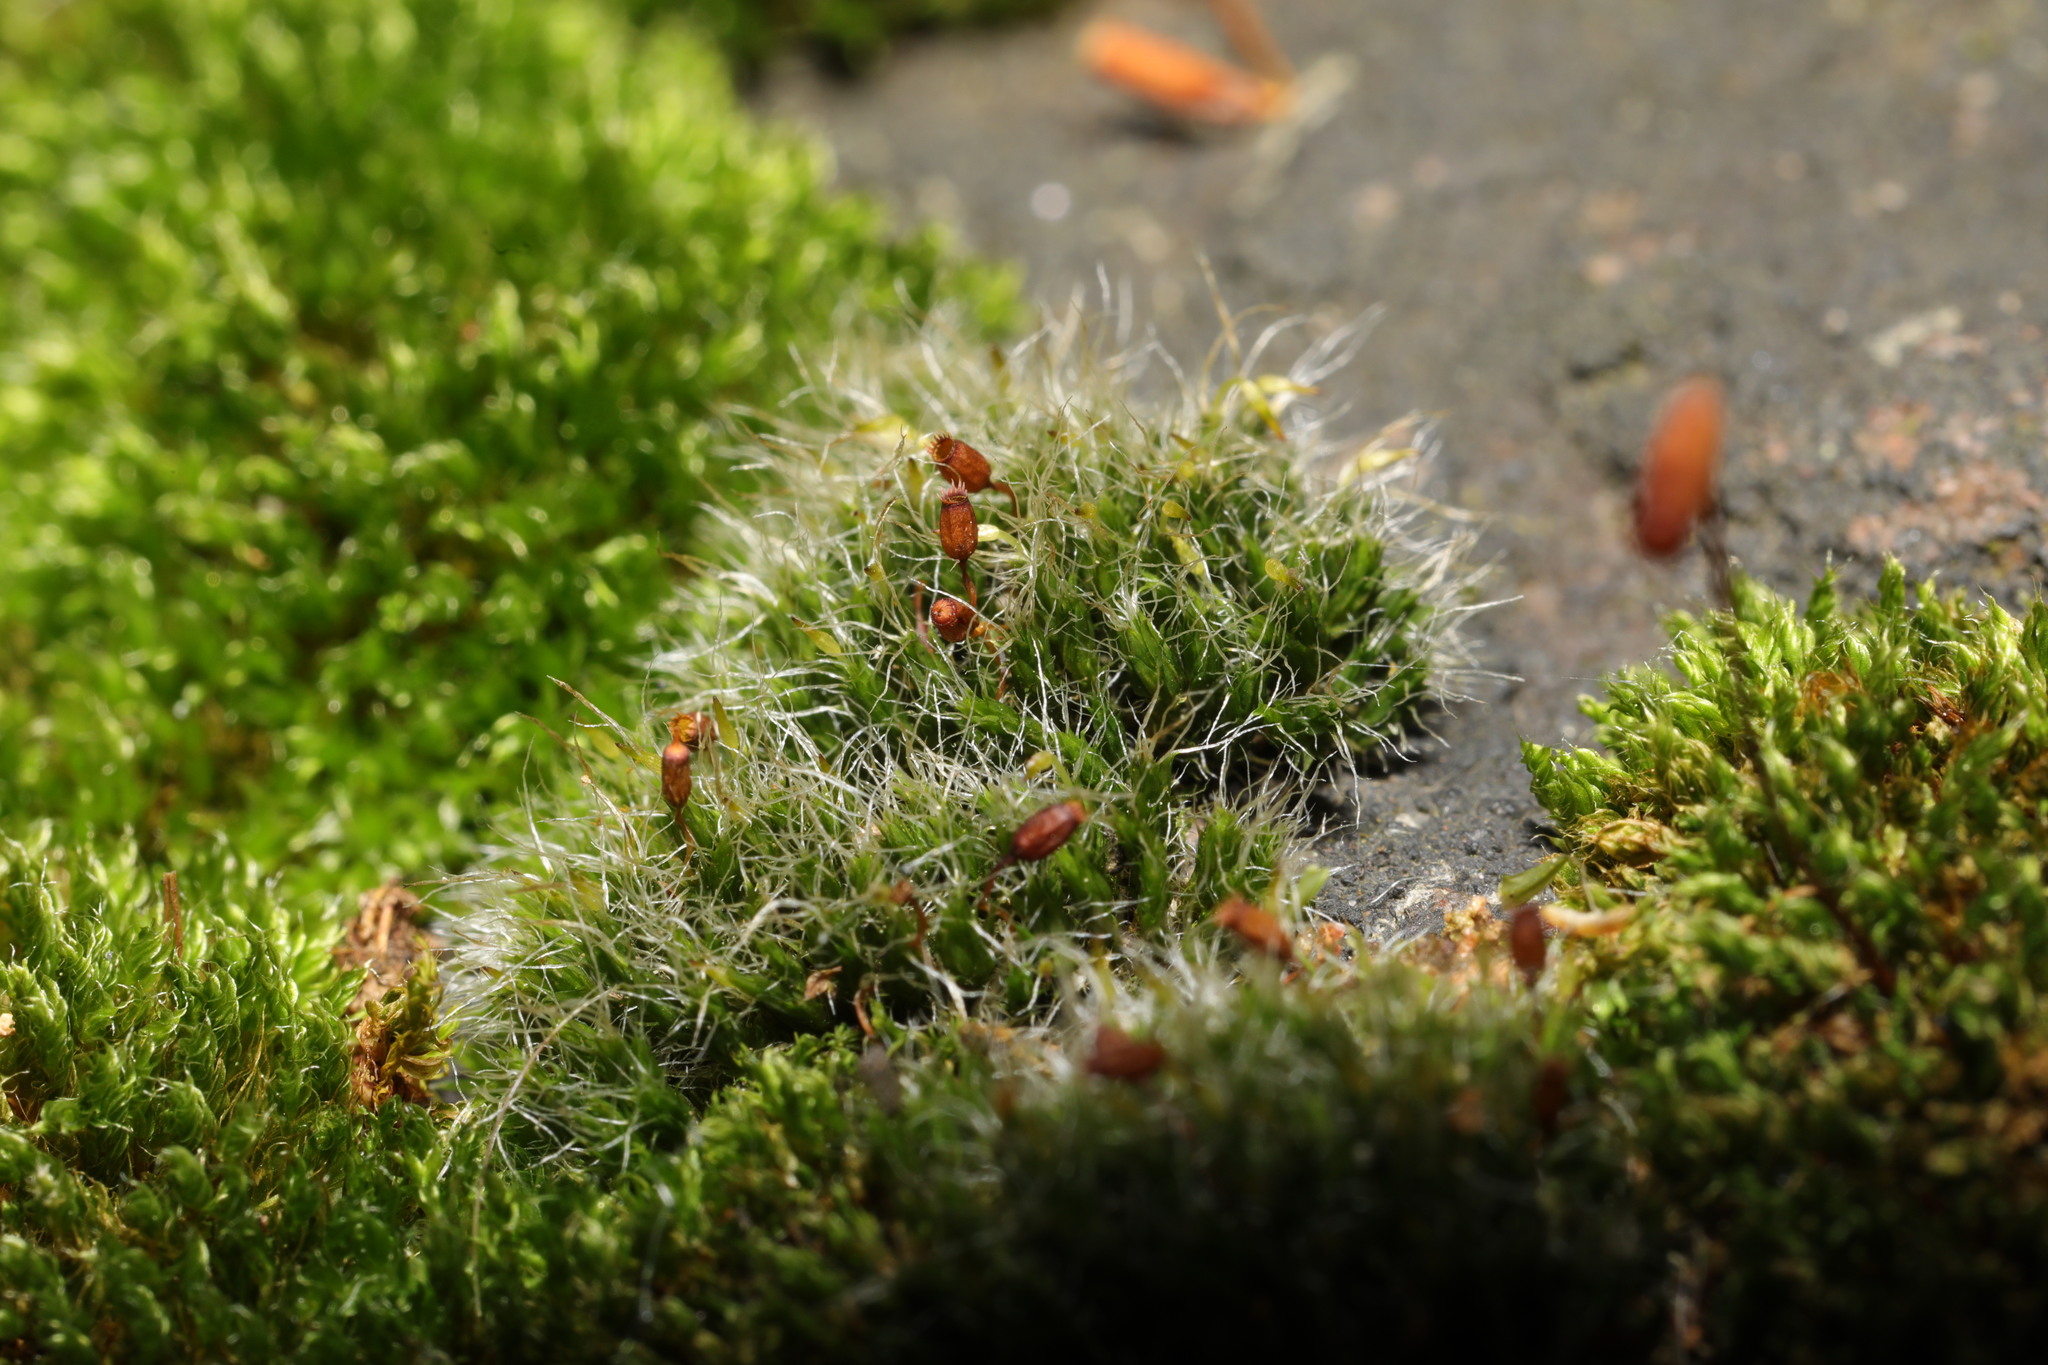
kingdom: Plantae
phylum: Bryophyta
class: Bryopsida
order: Grimmiales
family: Grimmiaceae
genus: Grimmia
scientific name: Grimmia pulvinata
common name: Grey-cushioned grimmia
